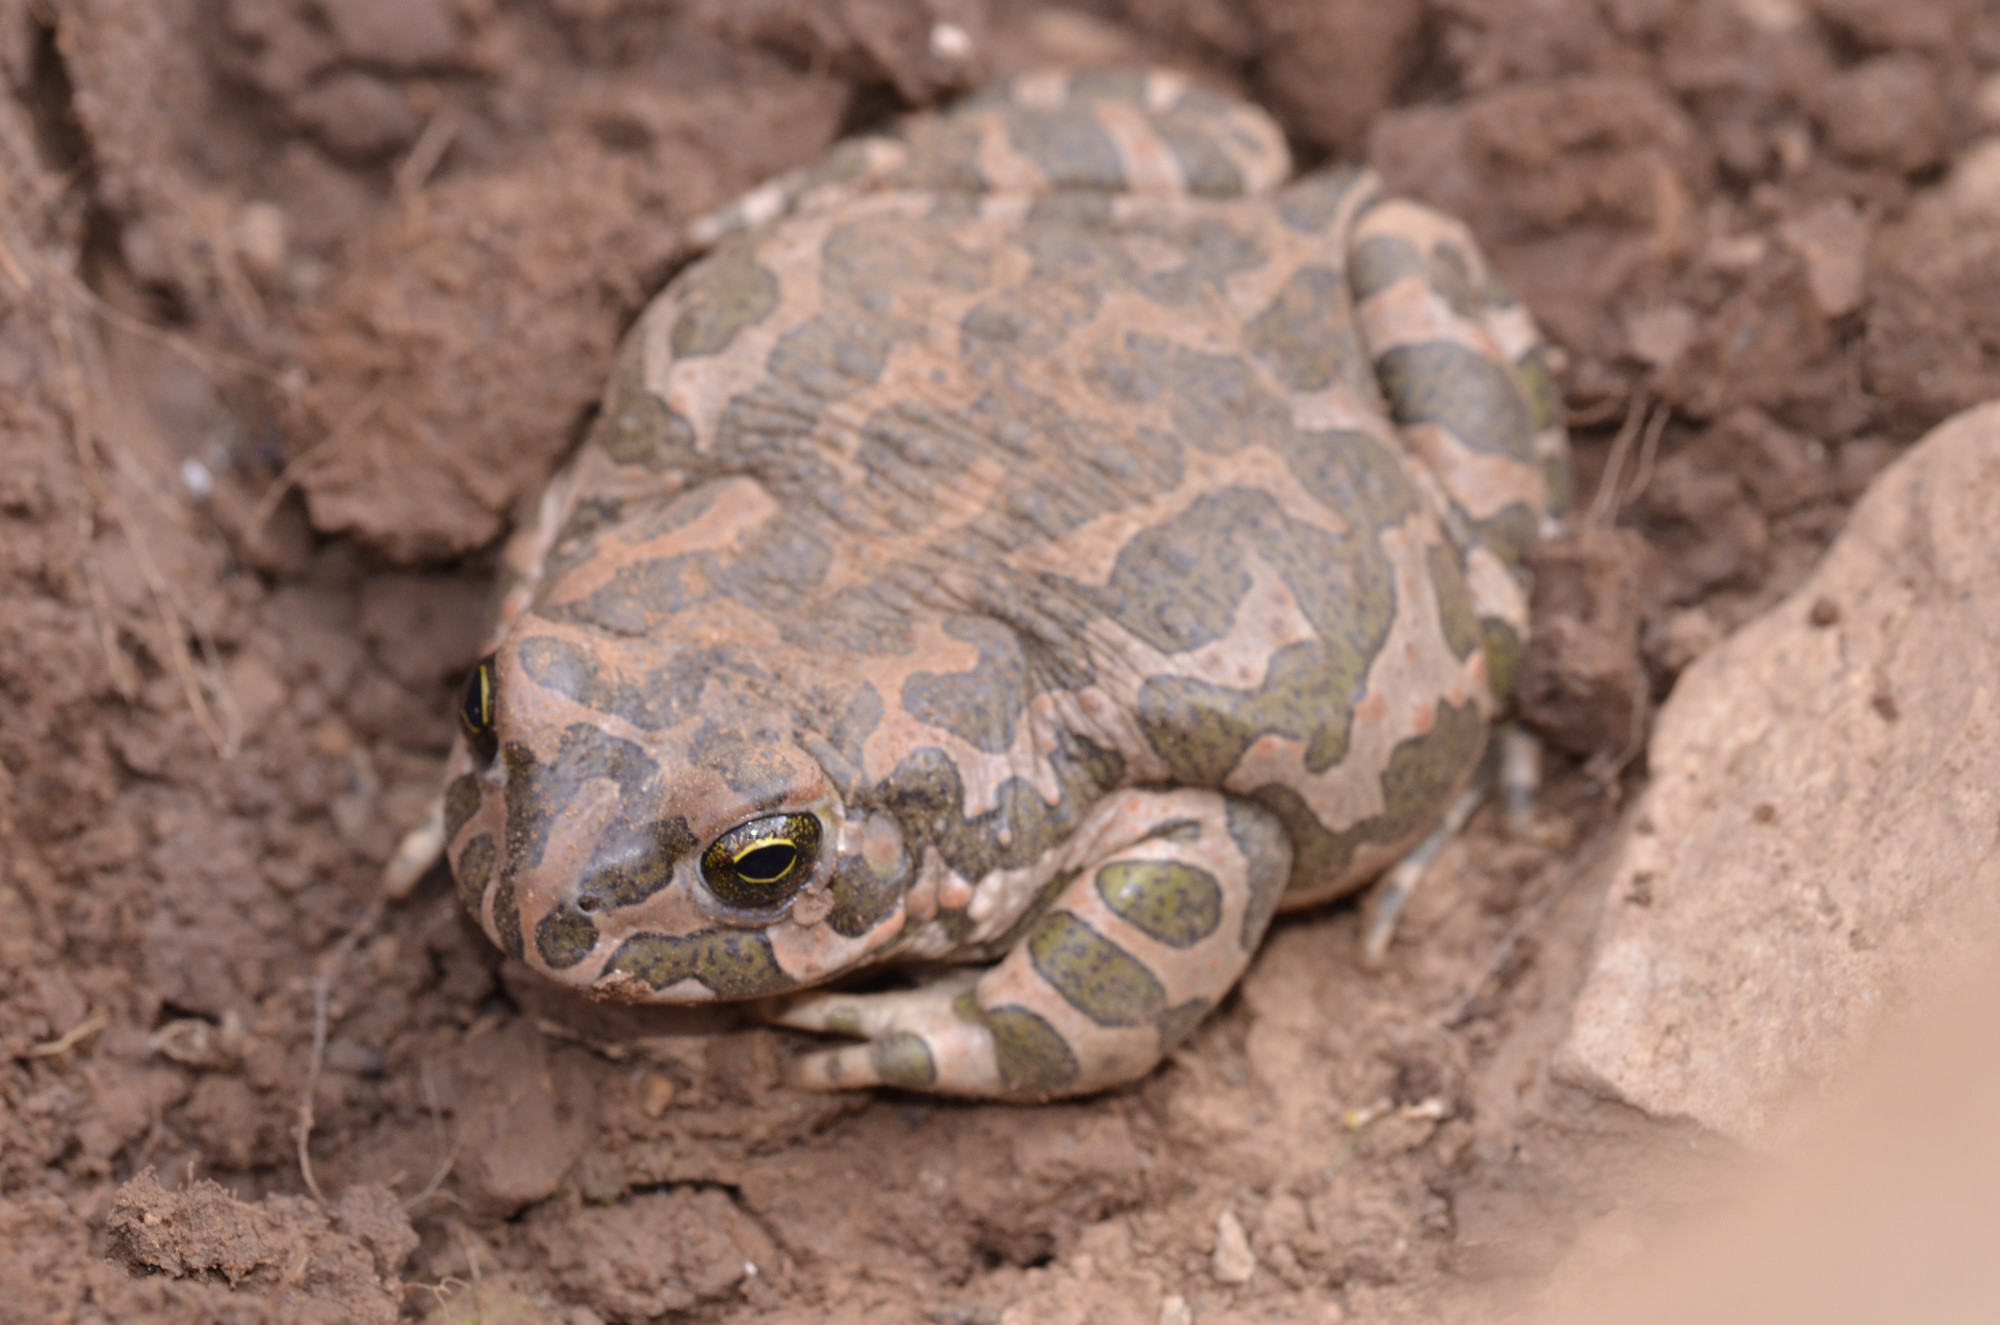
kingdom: Animalia
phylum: Chordata
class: Amphibia
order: Anura
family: Bufonidae
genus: Bufotes
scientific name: Bufotes viridis
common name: European green toad
